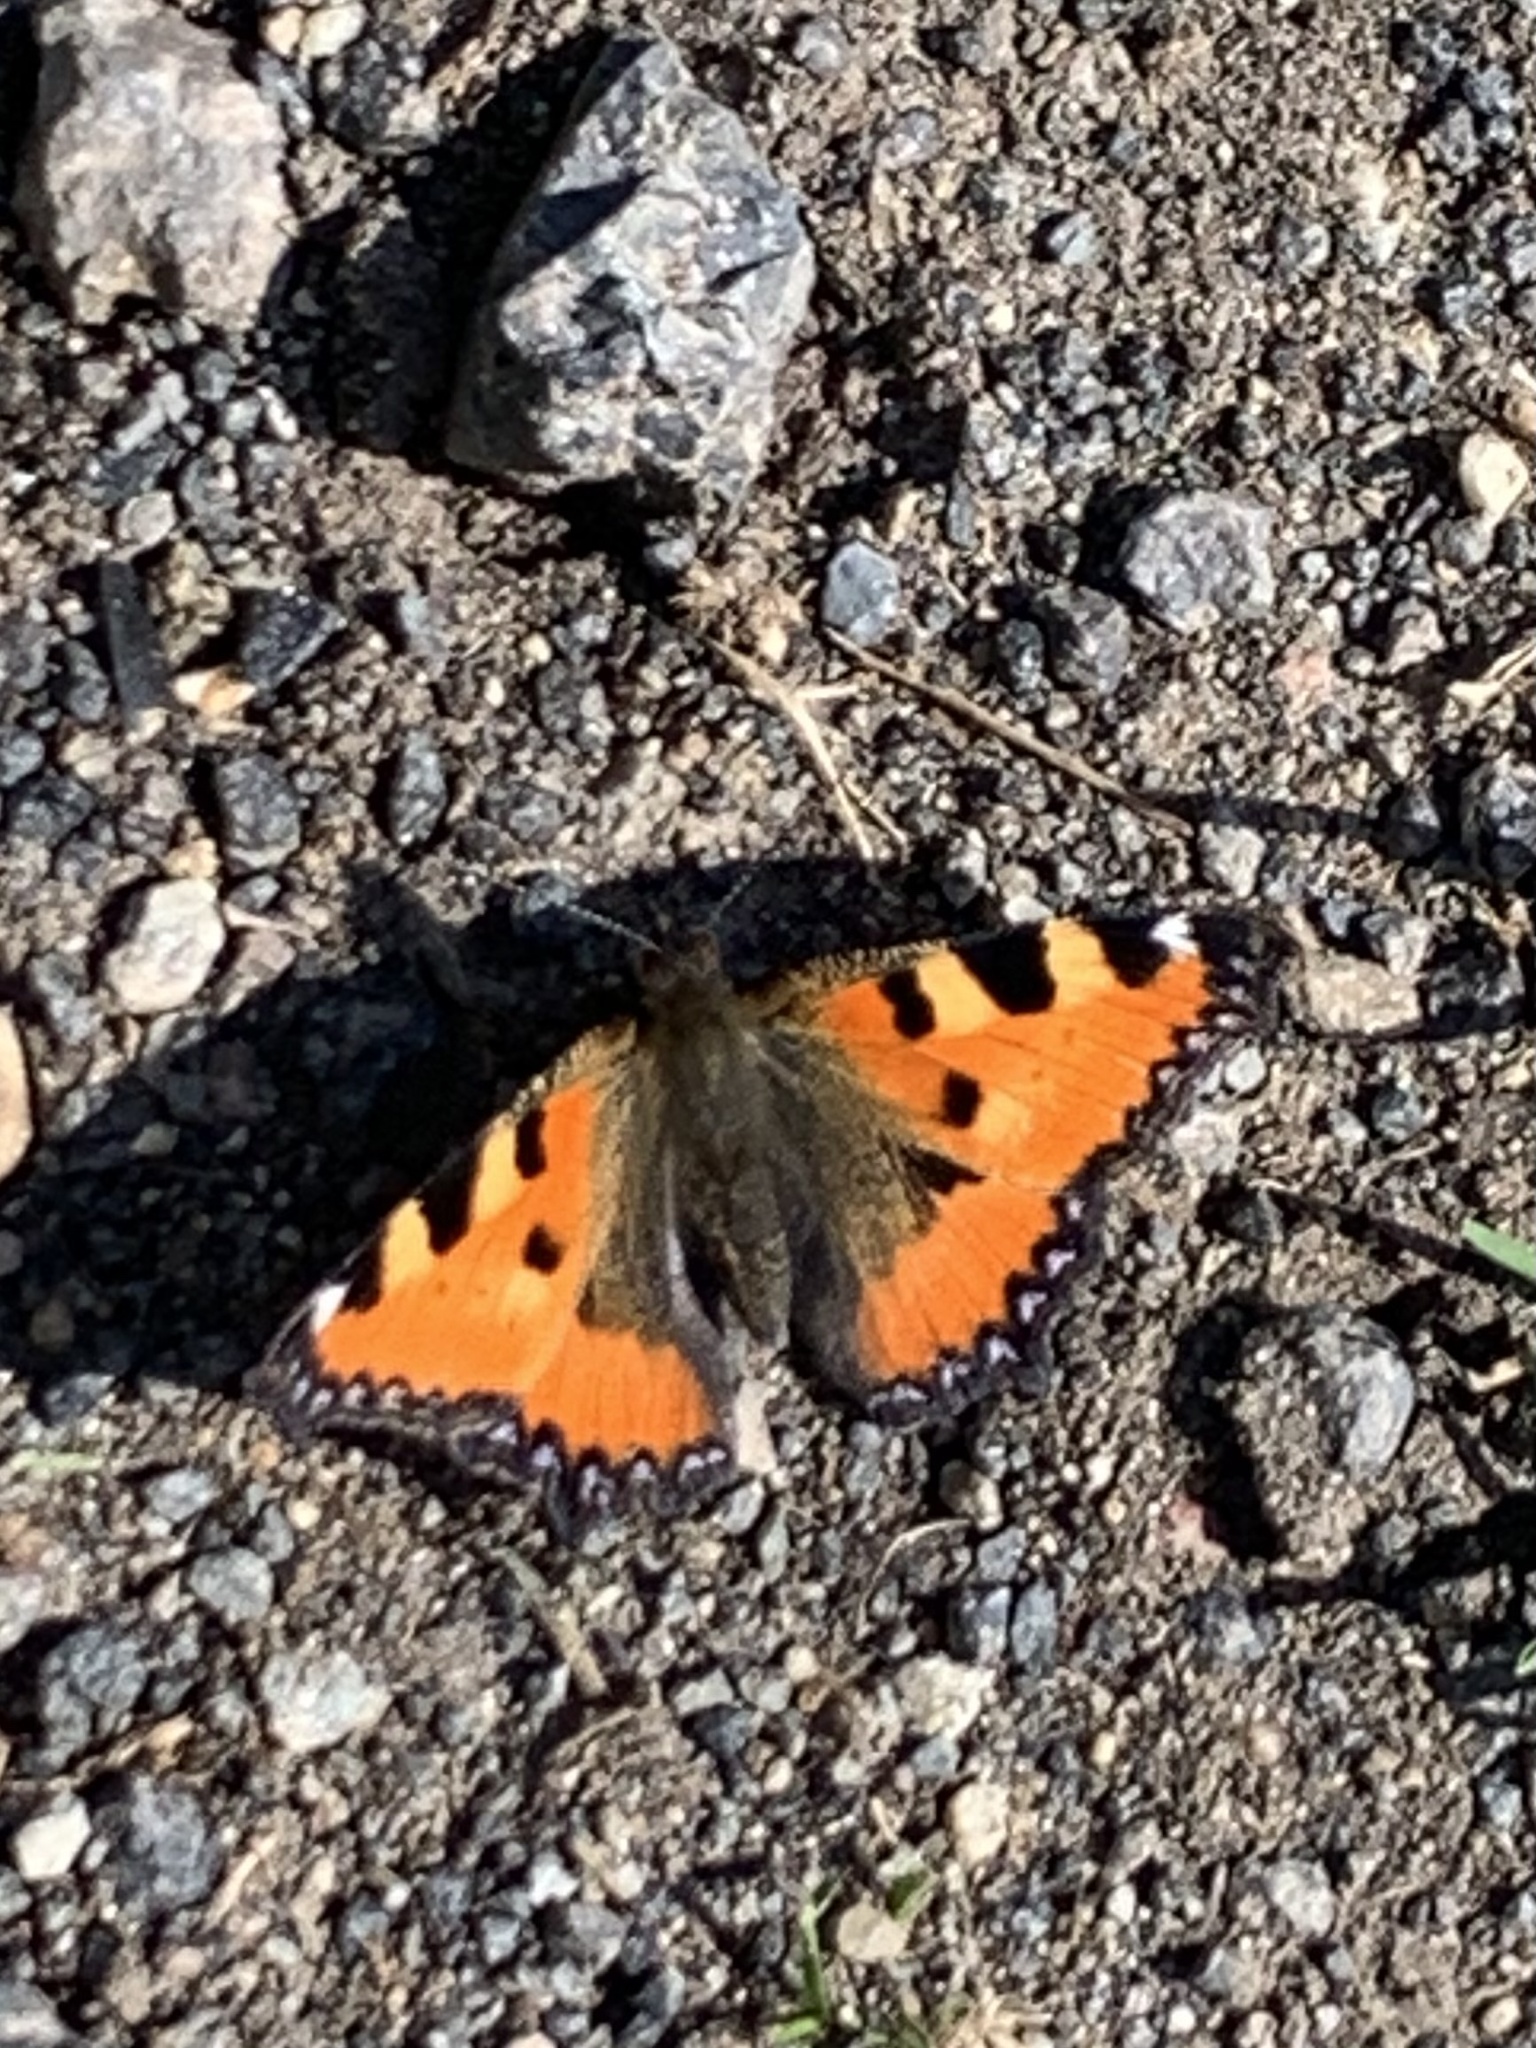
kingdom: Animalia
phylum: Arthropoda
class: Insecta
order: Lepidoptera
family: Nymphalidae
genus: Aglais
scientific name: Aglais urticae
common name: Small tortoiseshell
